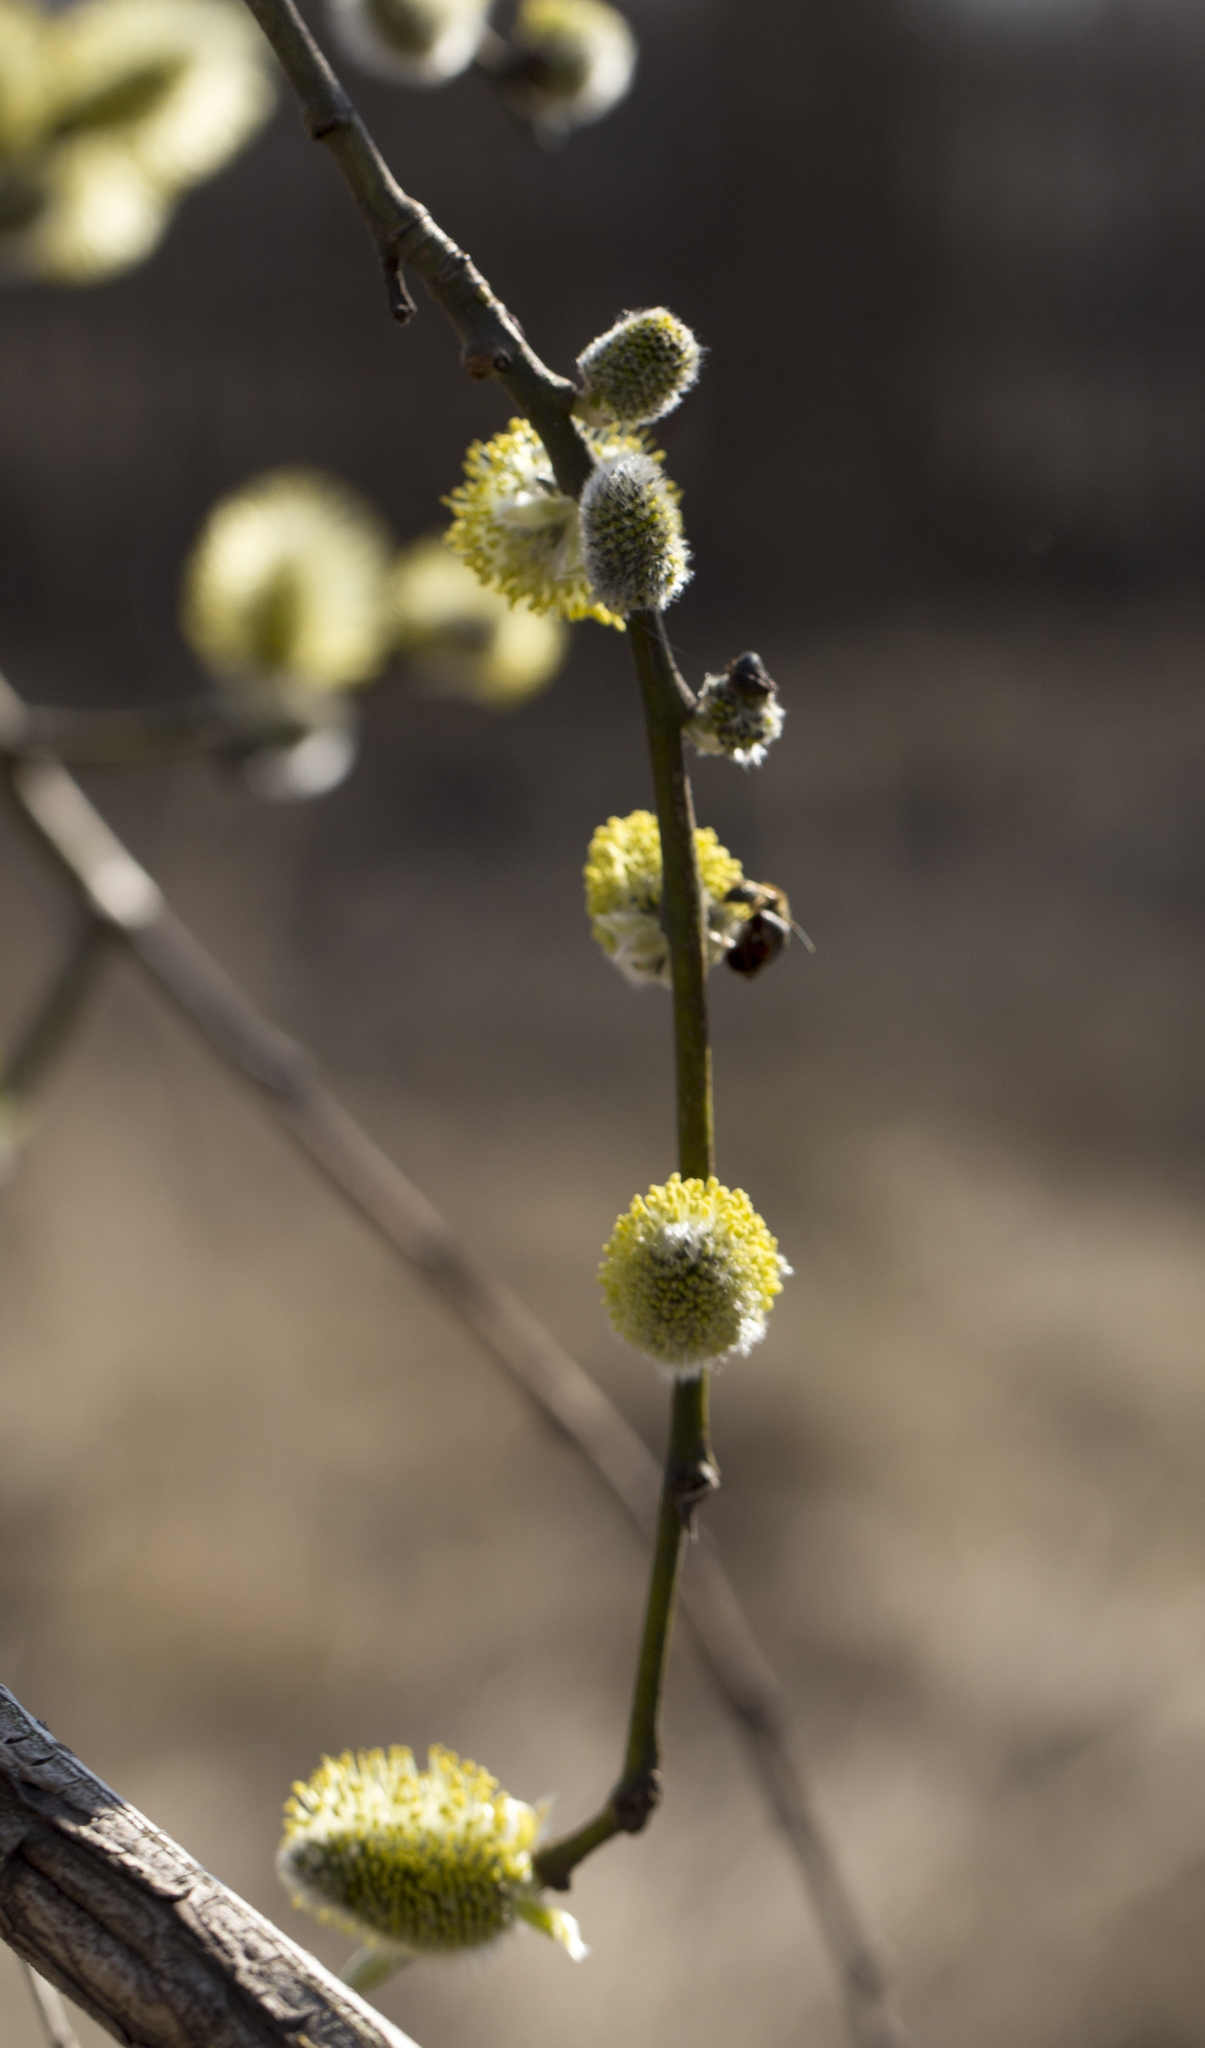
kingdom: Plantae
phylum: Tracheophyta
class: Magnoliopsida
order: Malpighiales
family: Salicaceae
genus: Salix
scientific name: Salix caprea
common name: Goat willow
